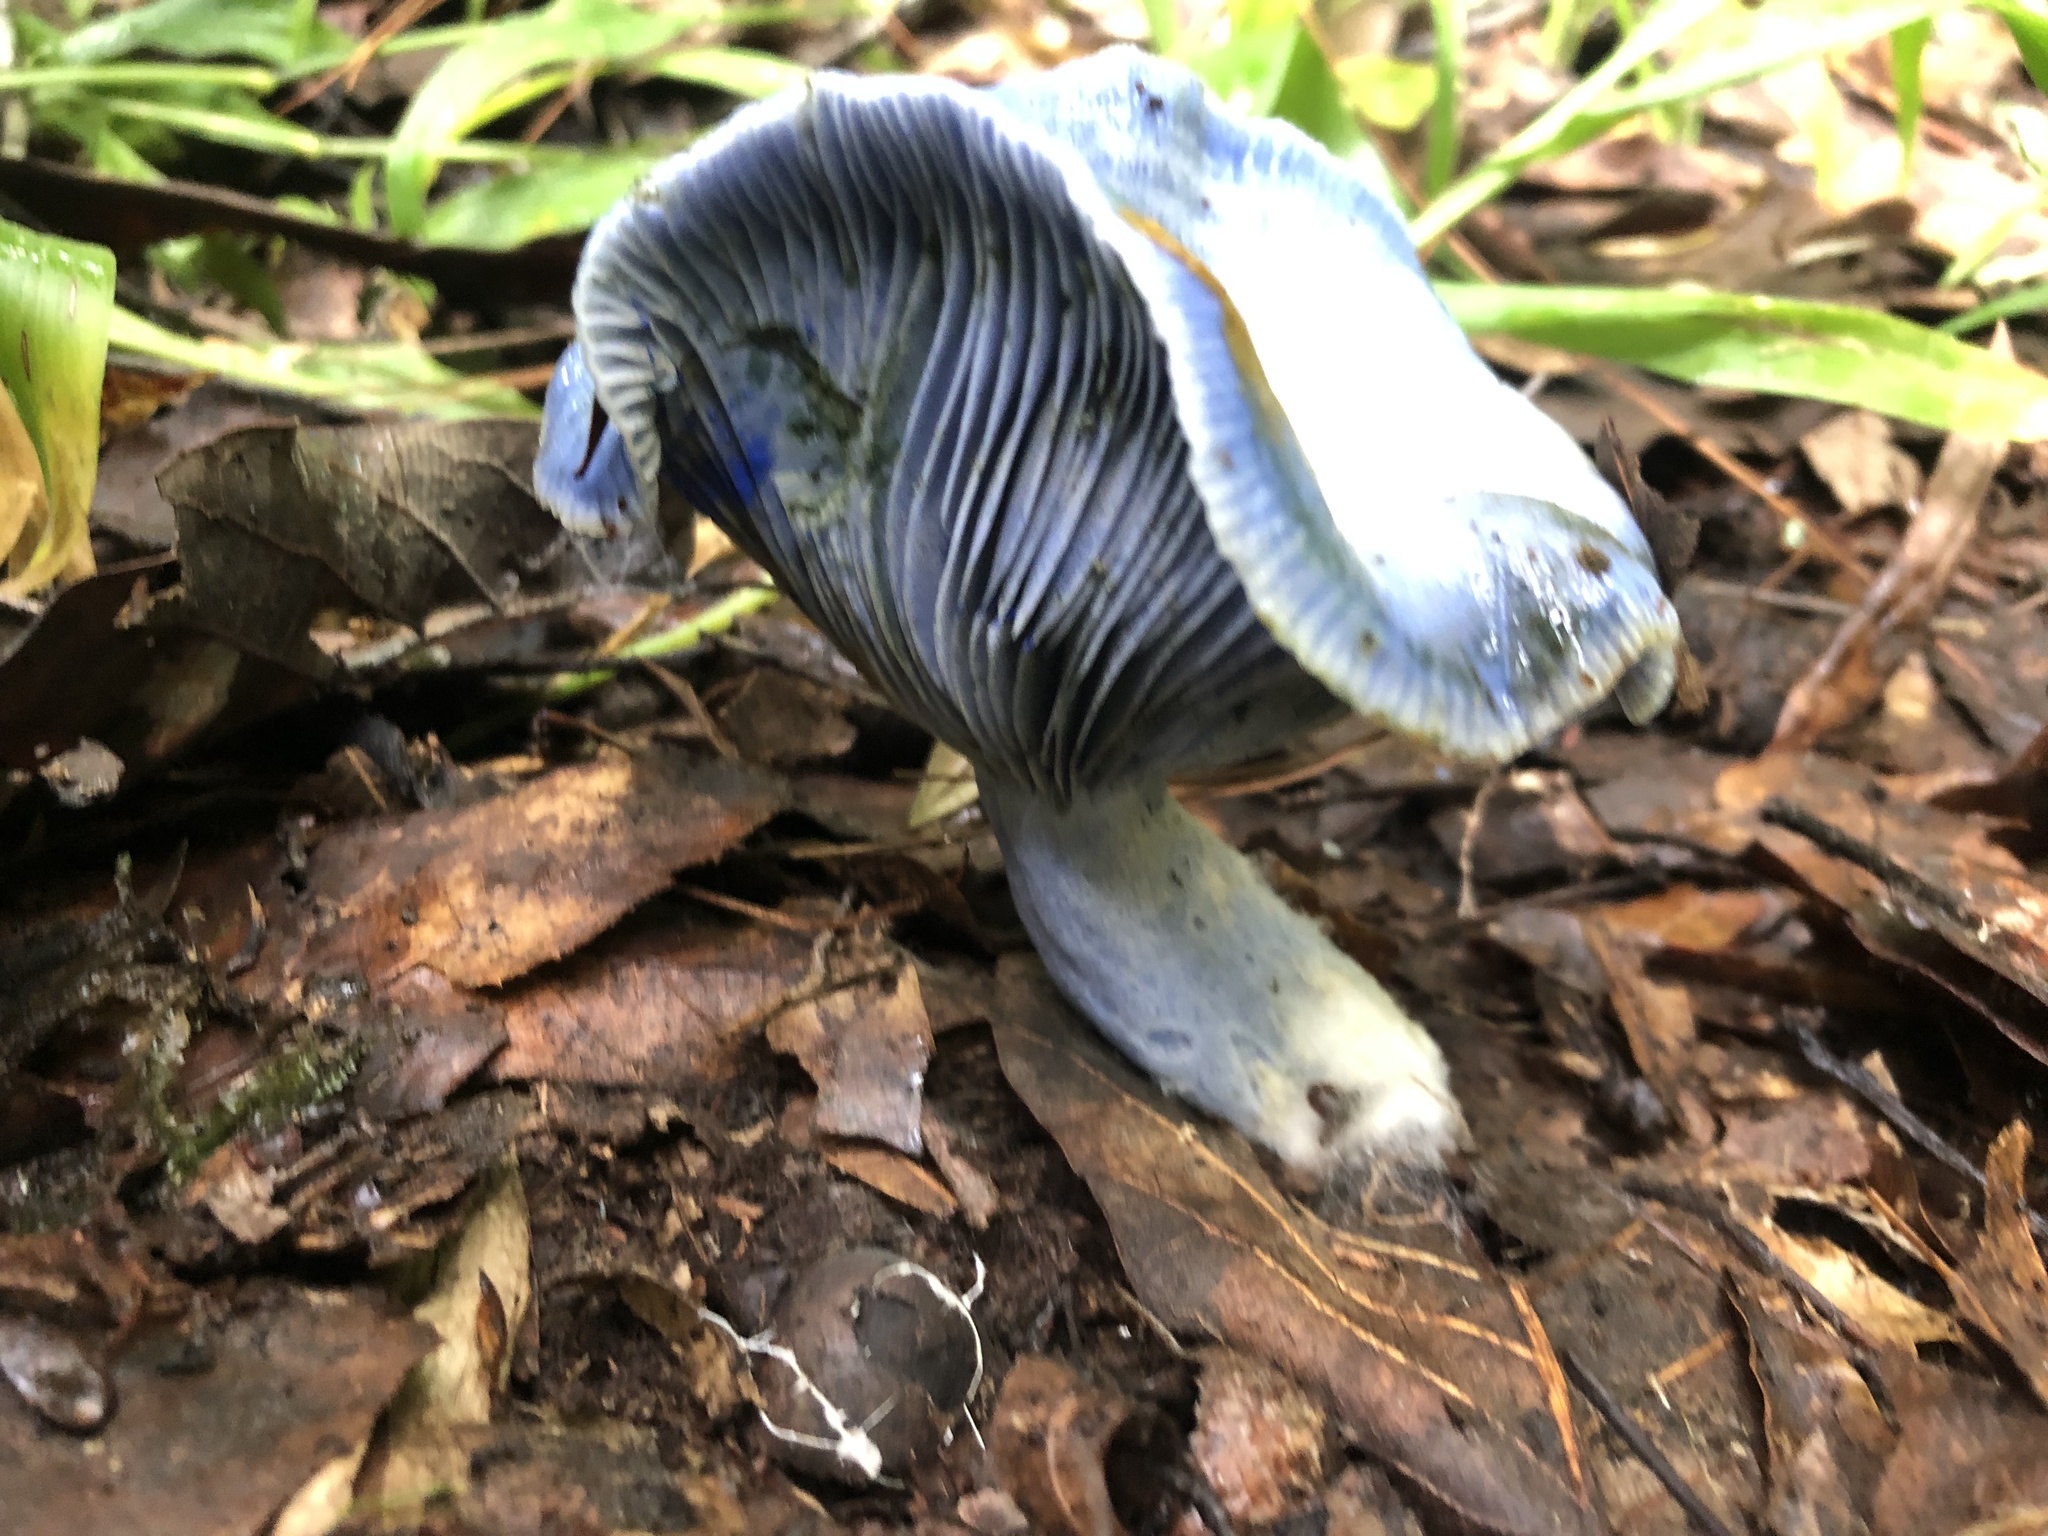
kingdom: Fungi
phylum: Basidiomycota
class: Agaricomycetes
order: Russulales
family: Russulaceae
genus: Lactarius
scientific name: Lactarius indigo
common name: Indigo milk cap
